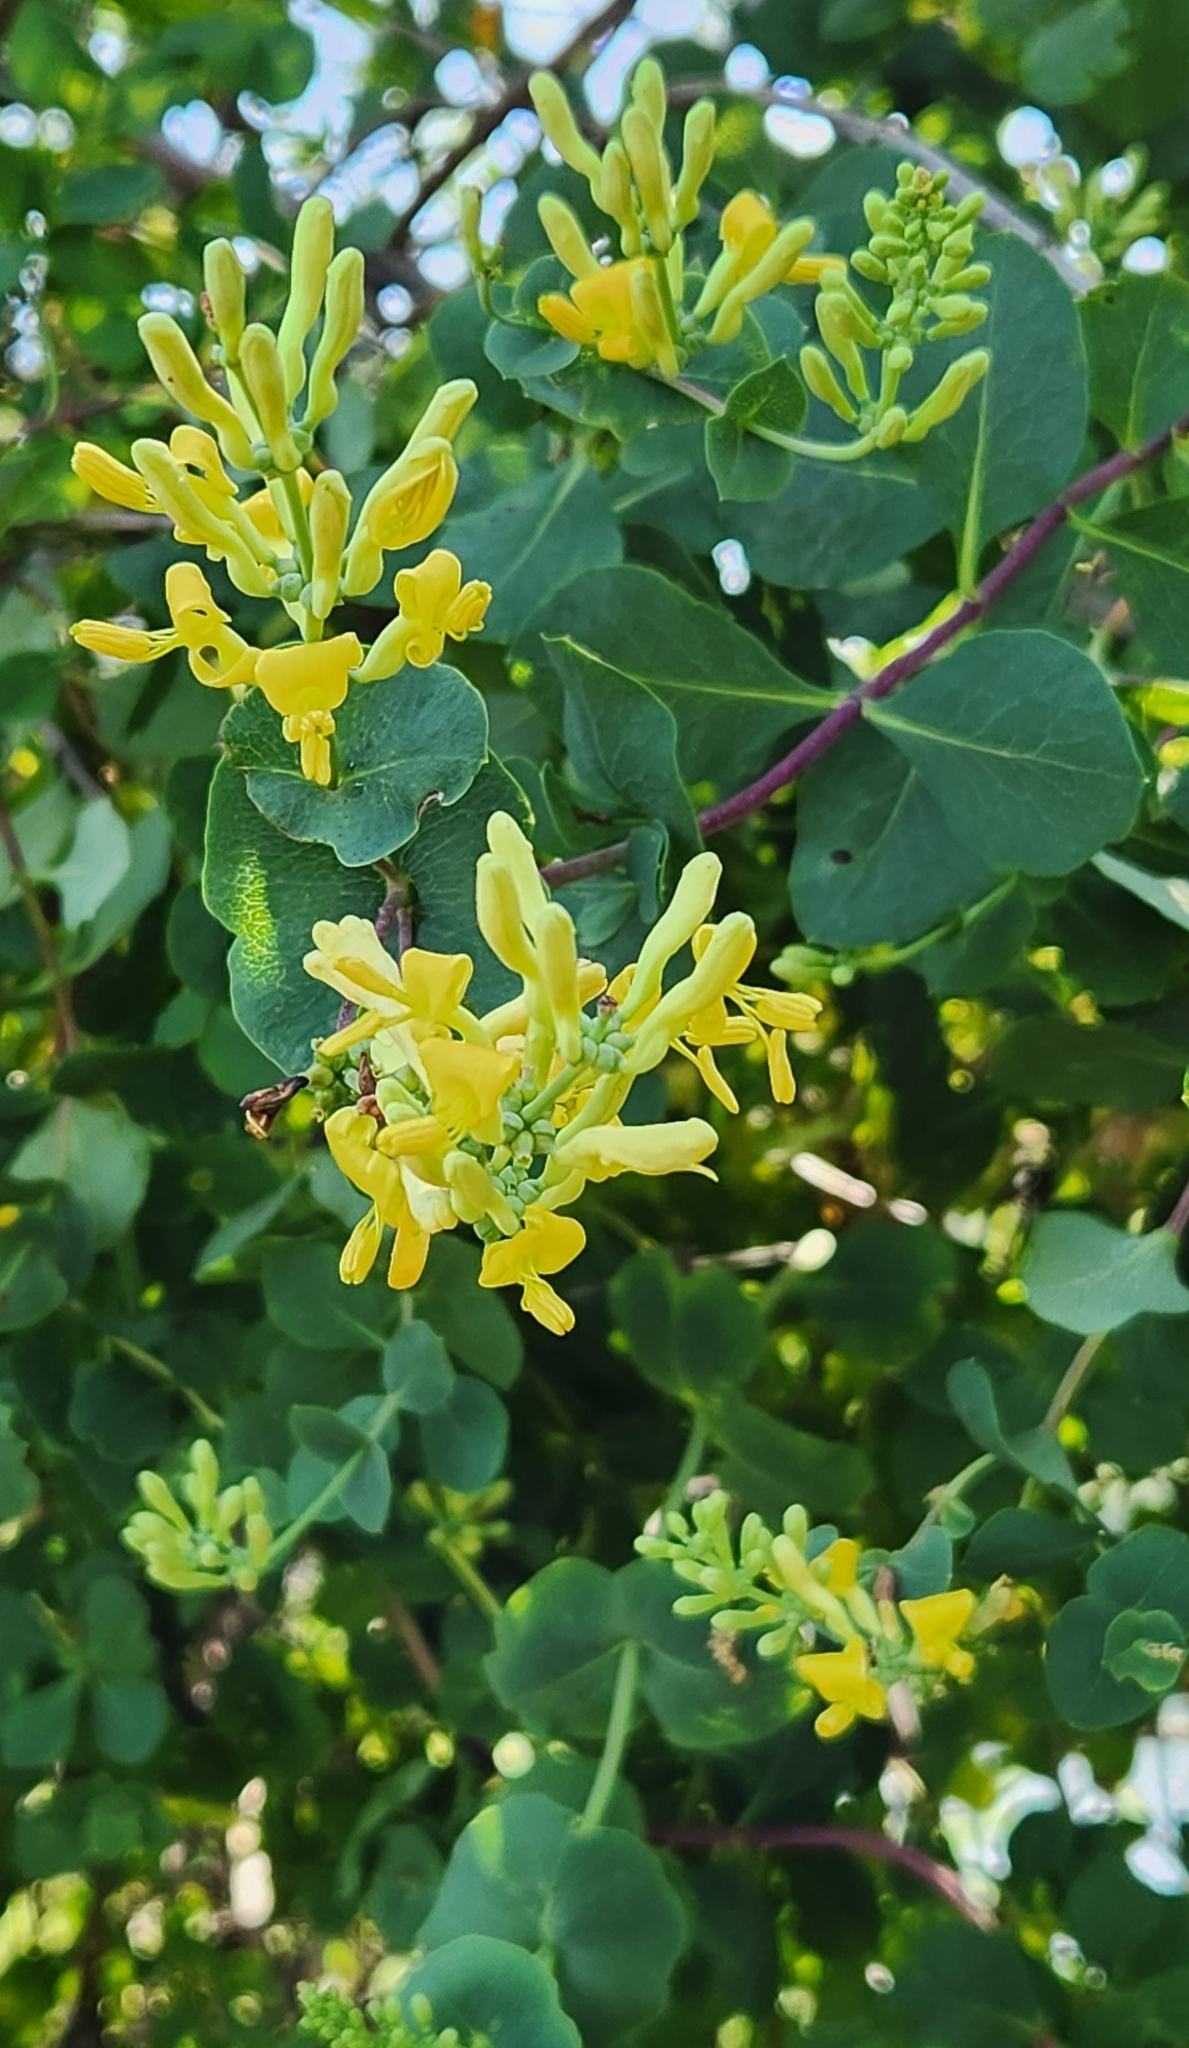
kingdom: Plantae
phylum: Tracheophyta
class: Magnoliopsida
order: Dipsacales
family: Caprifoliaceae
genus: Lonicera
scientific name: Lonicera interrupta
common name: Chaparral honeysuckle
